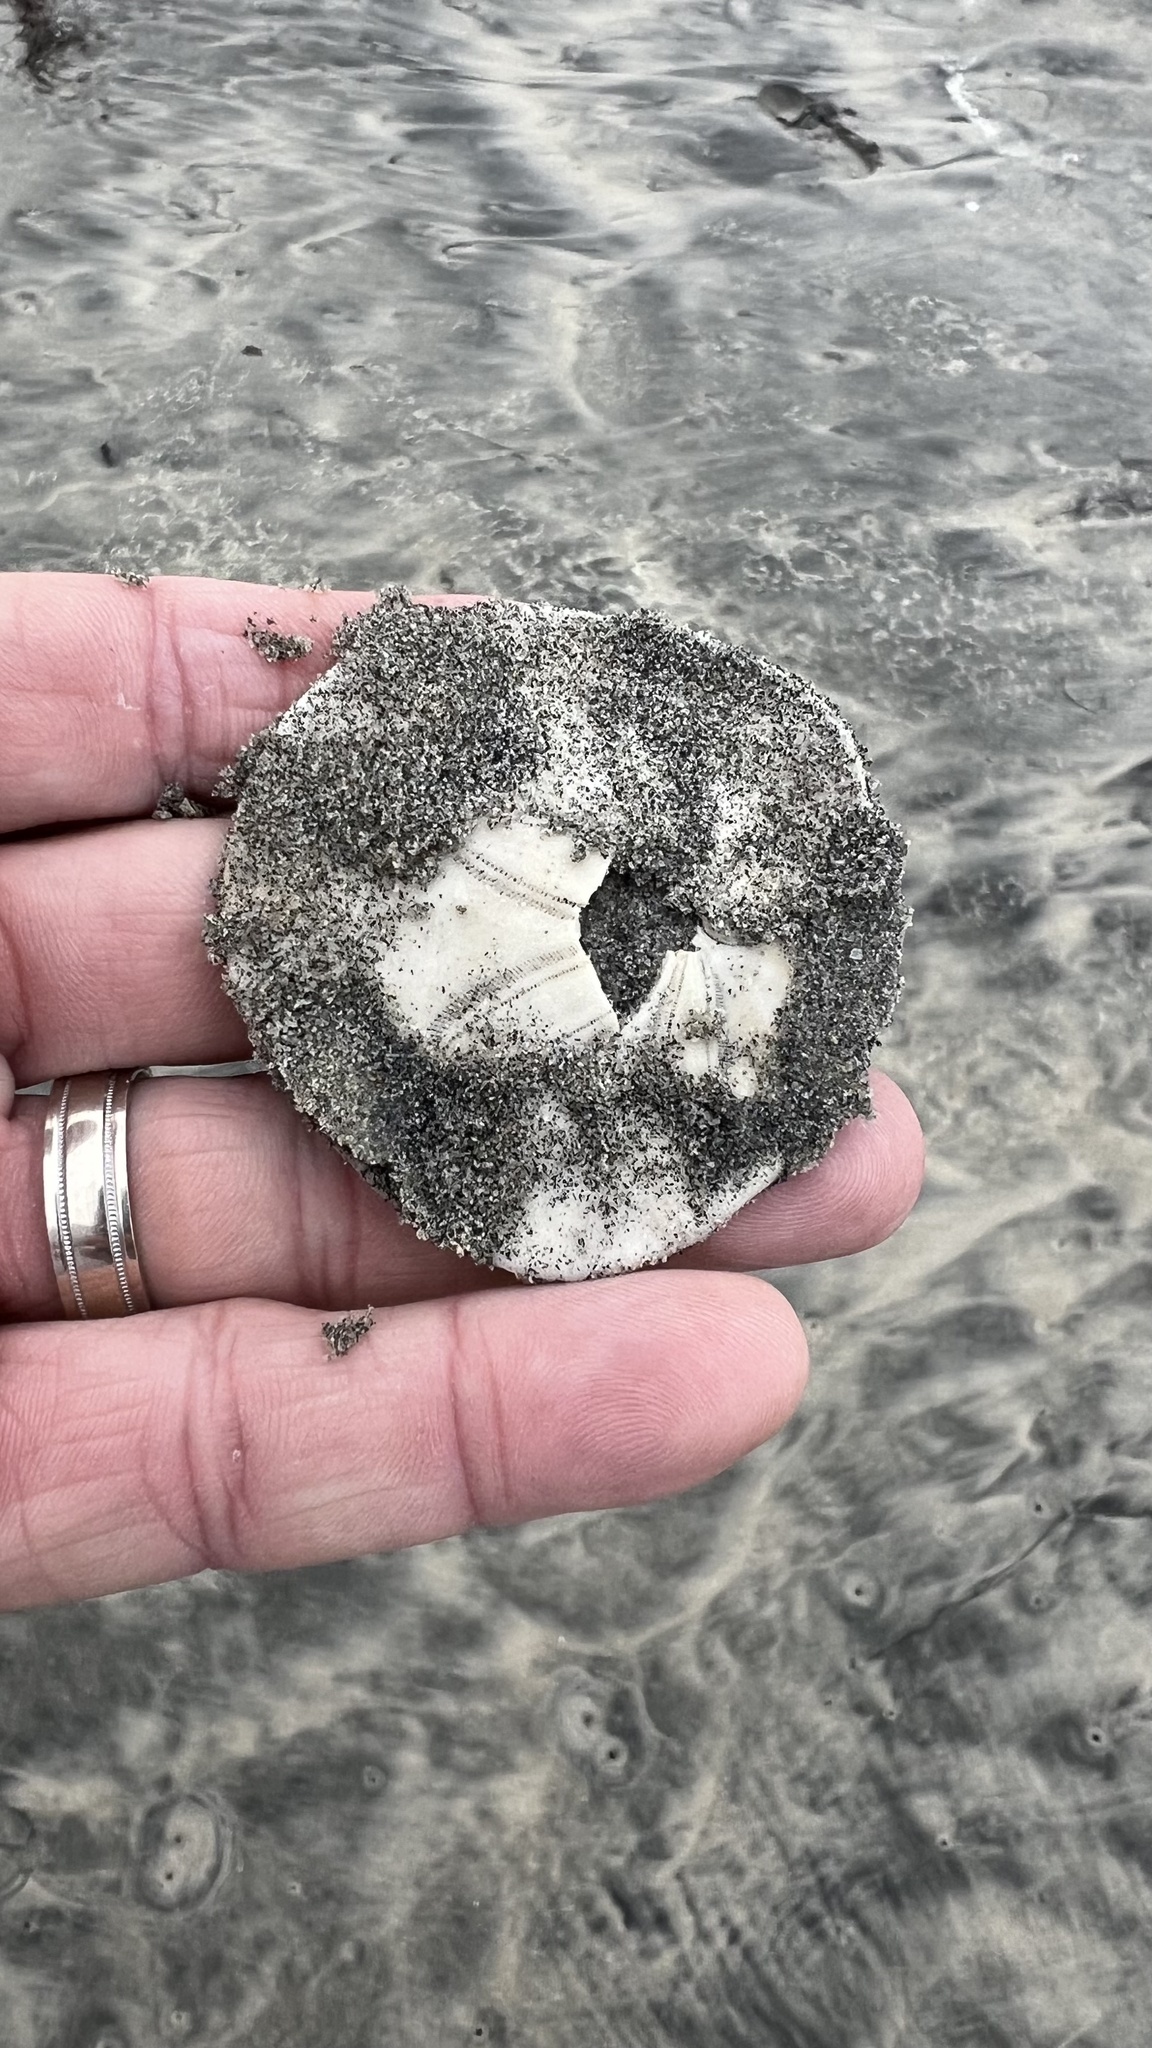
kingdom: Animalia
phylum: Echinodermata
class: Echinoidea
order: Echinolampadacea
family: Dendrasteridae
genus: Dendraster
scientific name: Dendraster excentricus
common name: Eccentric sand dollar sea urchin
